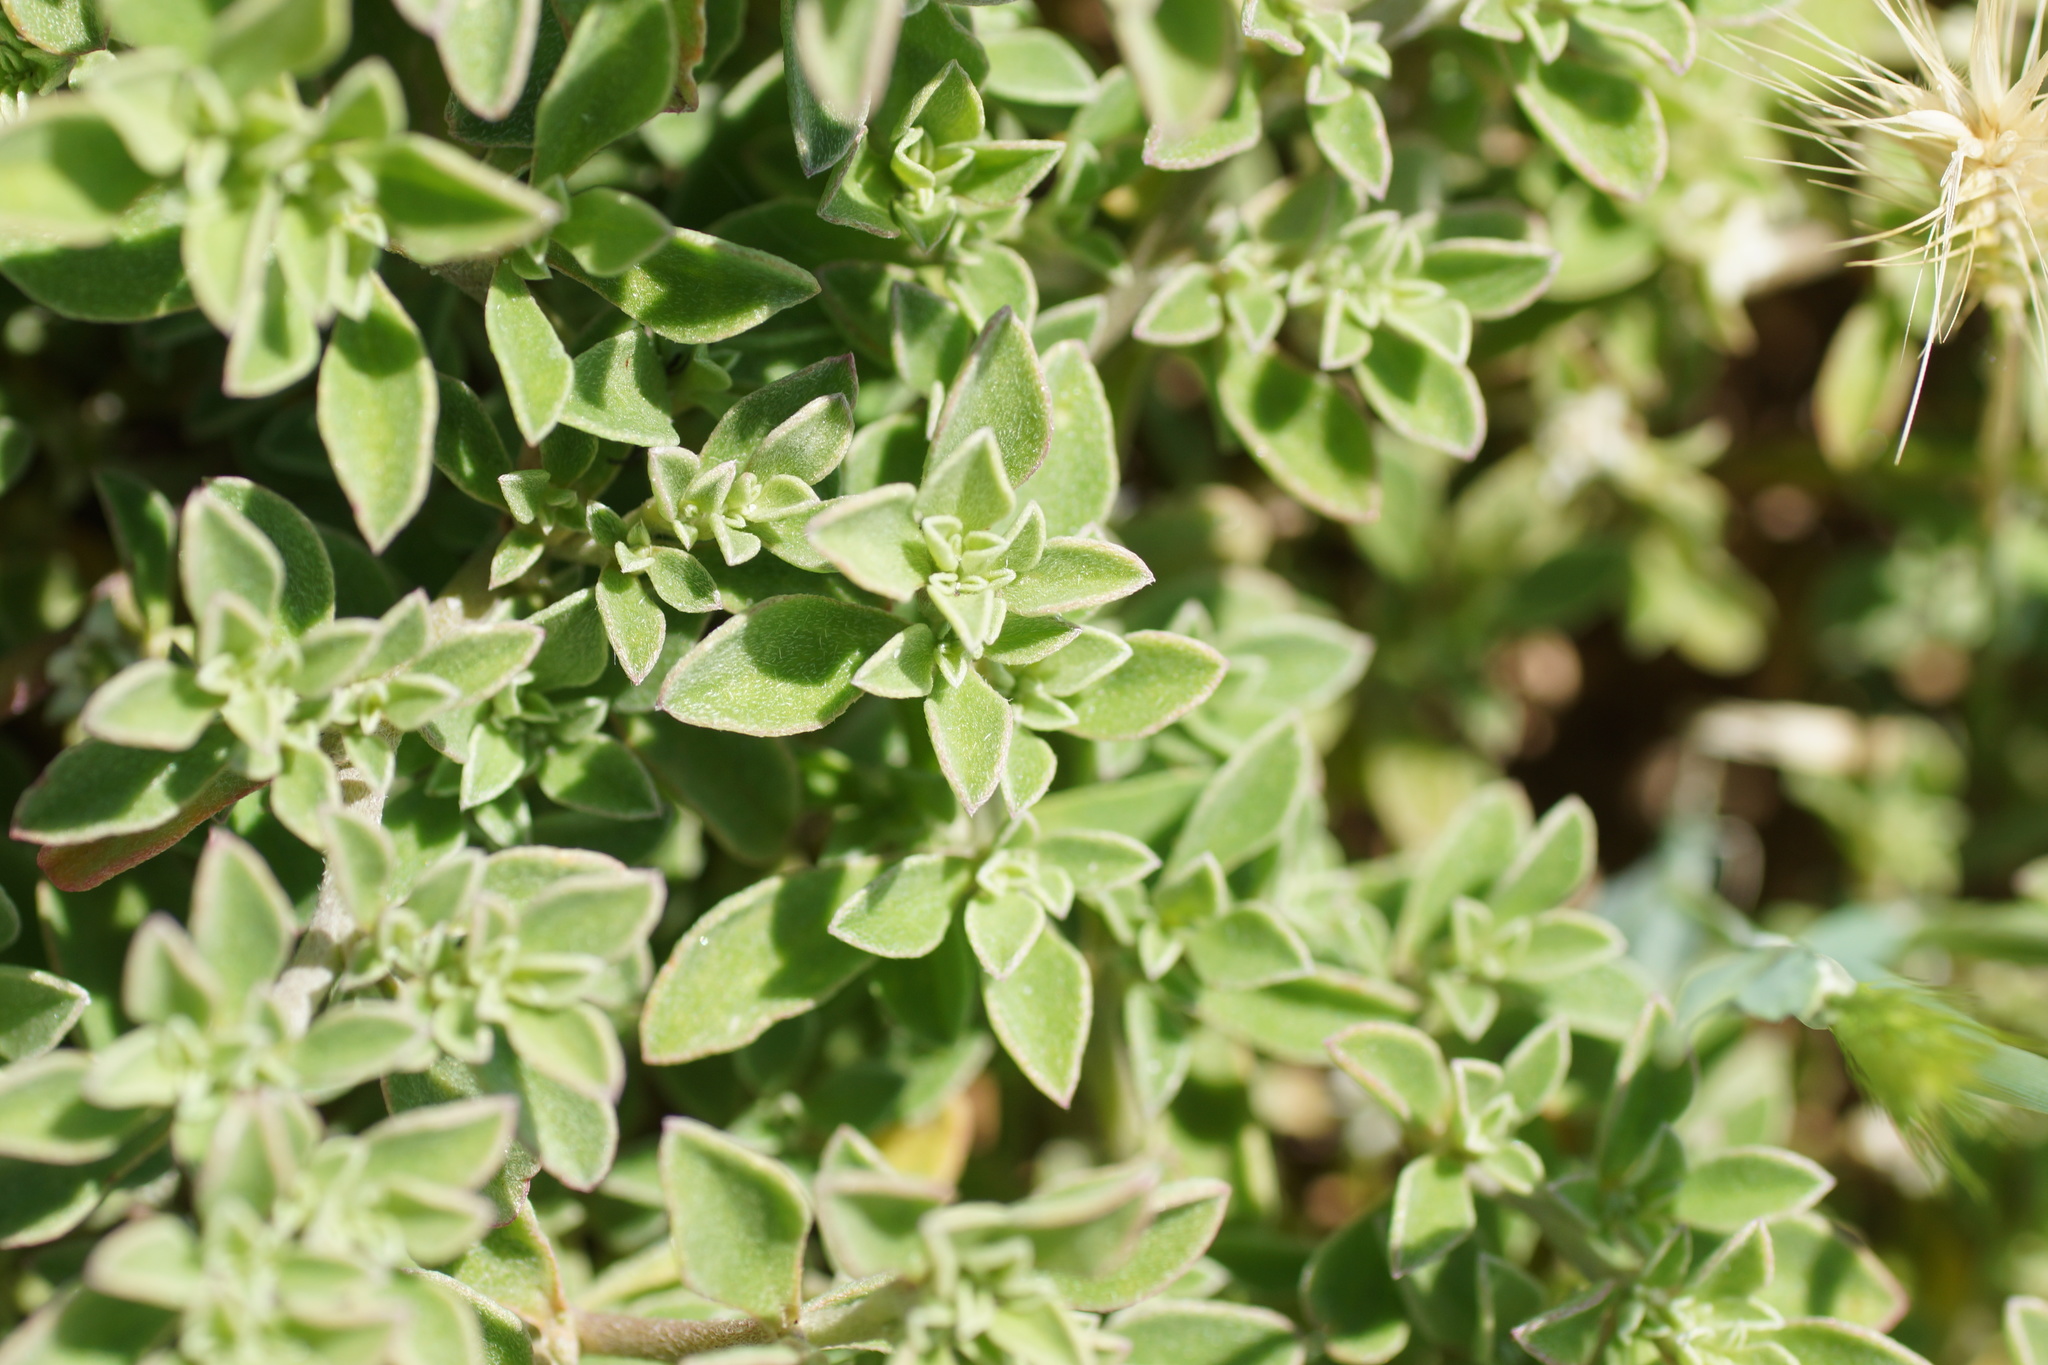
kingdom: Plantae
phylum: Tracheophyta
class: Magnoliopsida
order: Caryophyllales
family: Aizoaceae
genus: Aizoon
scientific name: Aizoon pubescens
